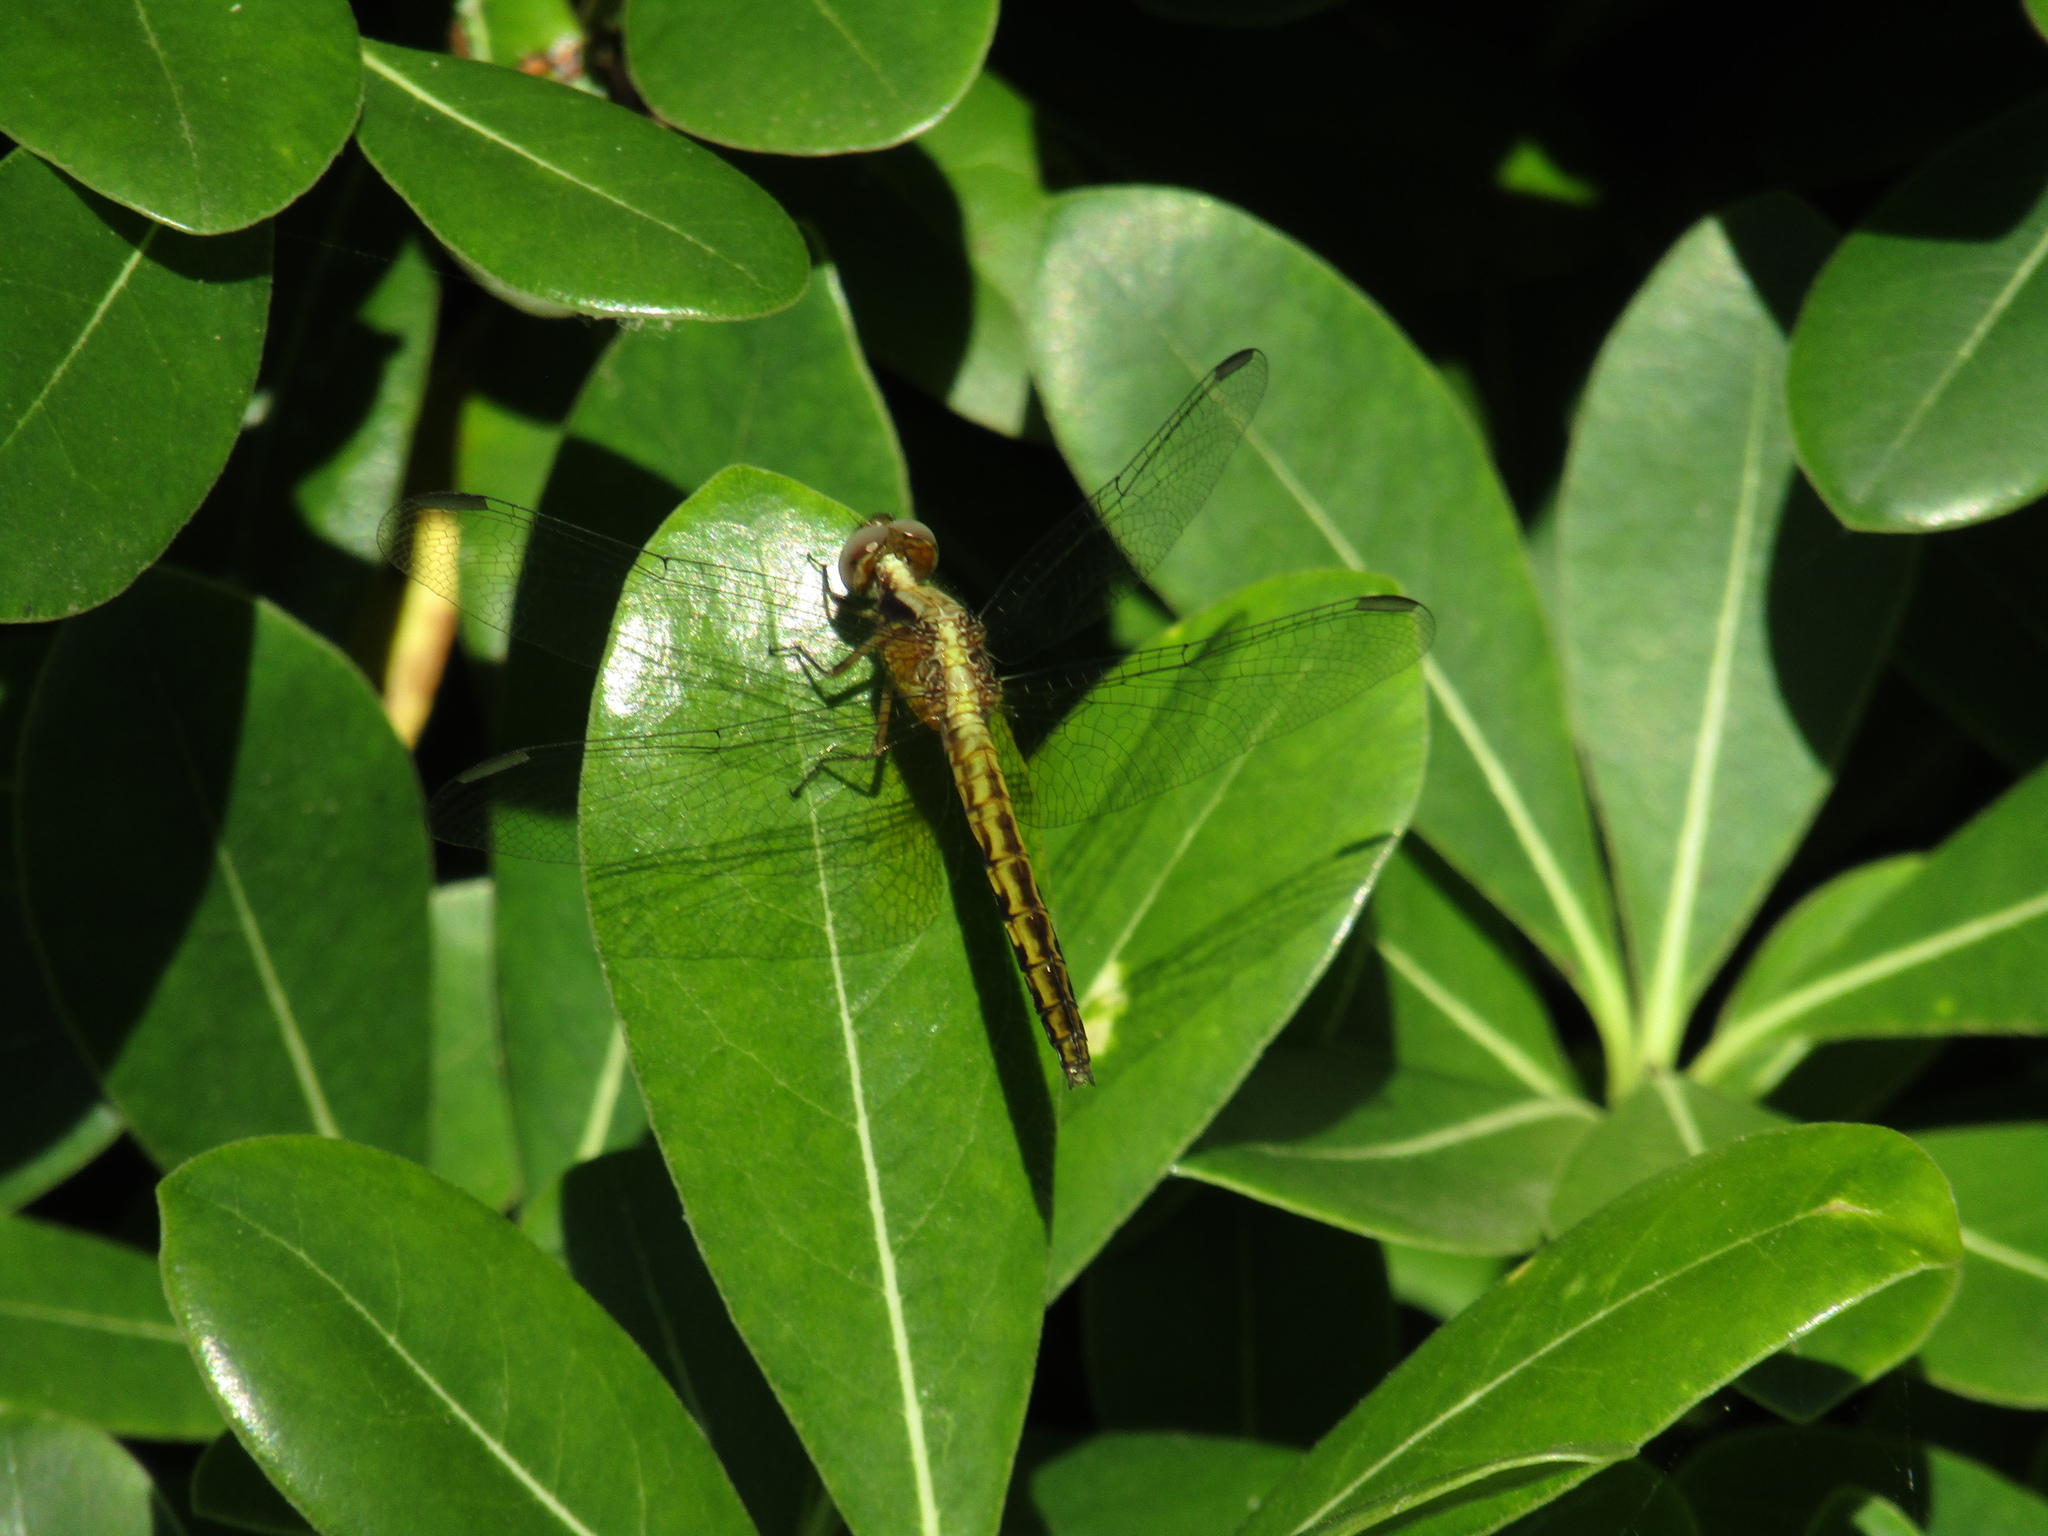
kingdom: Animalia
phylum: Arthropoda
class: Insecta
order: Odonata
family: Libellulidae
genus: Erythrodiplax
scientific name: Erythrodiplax melanorubra
